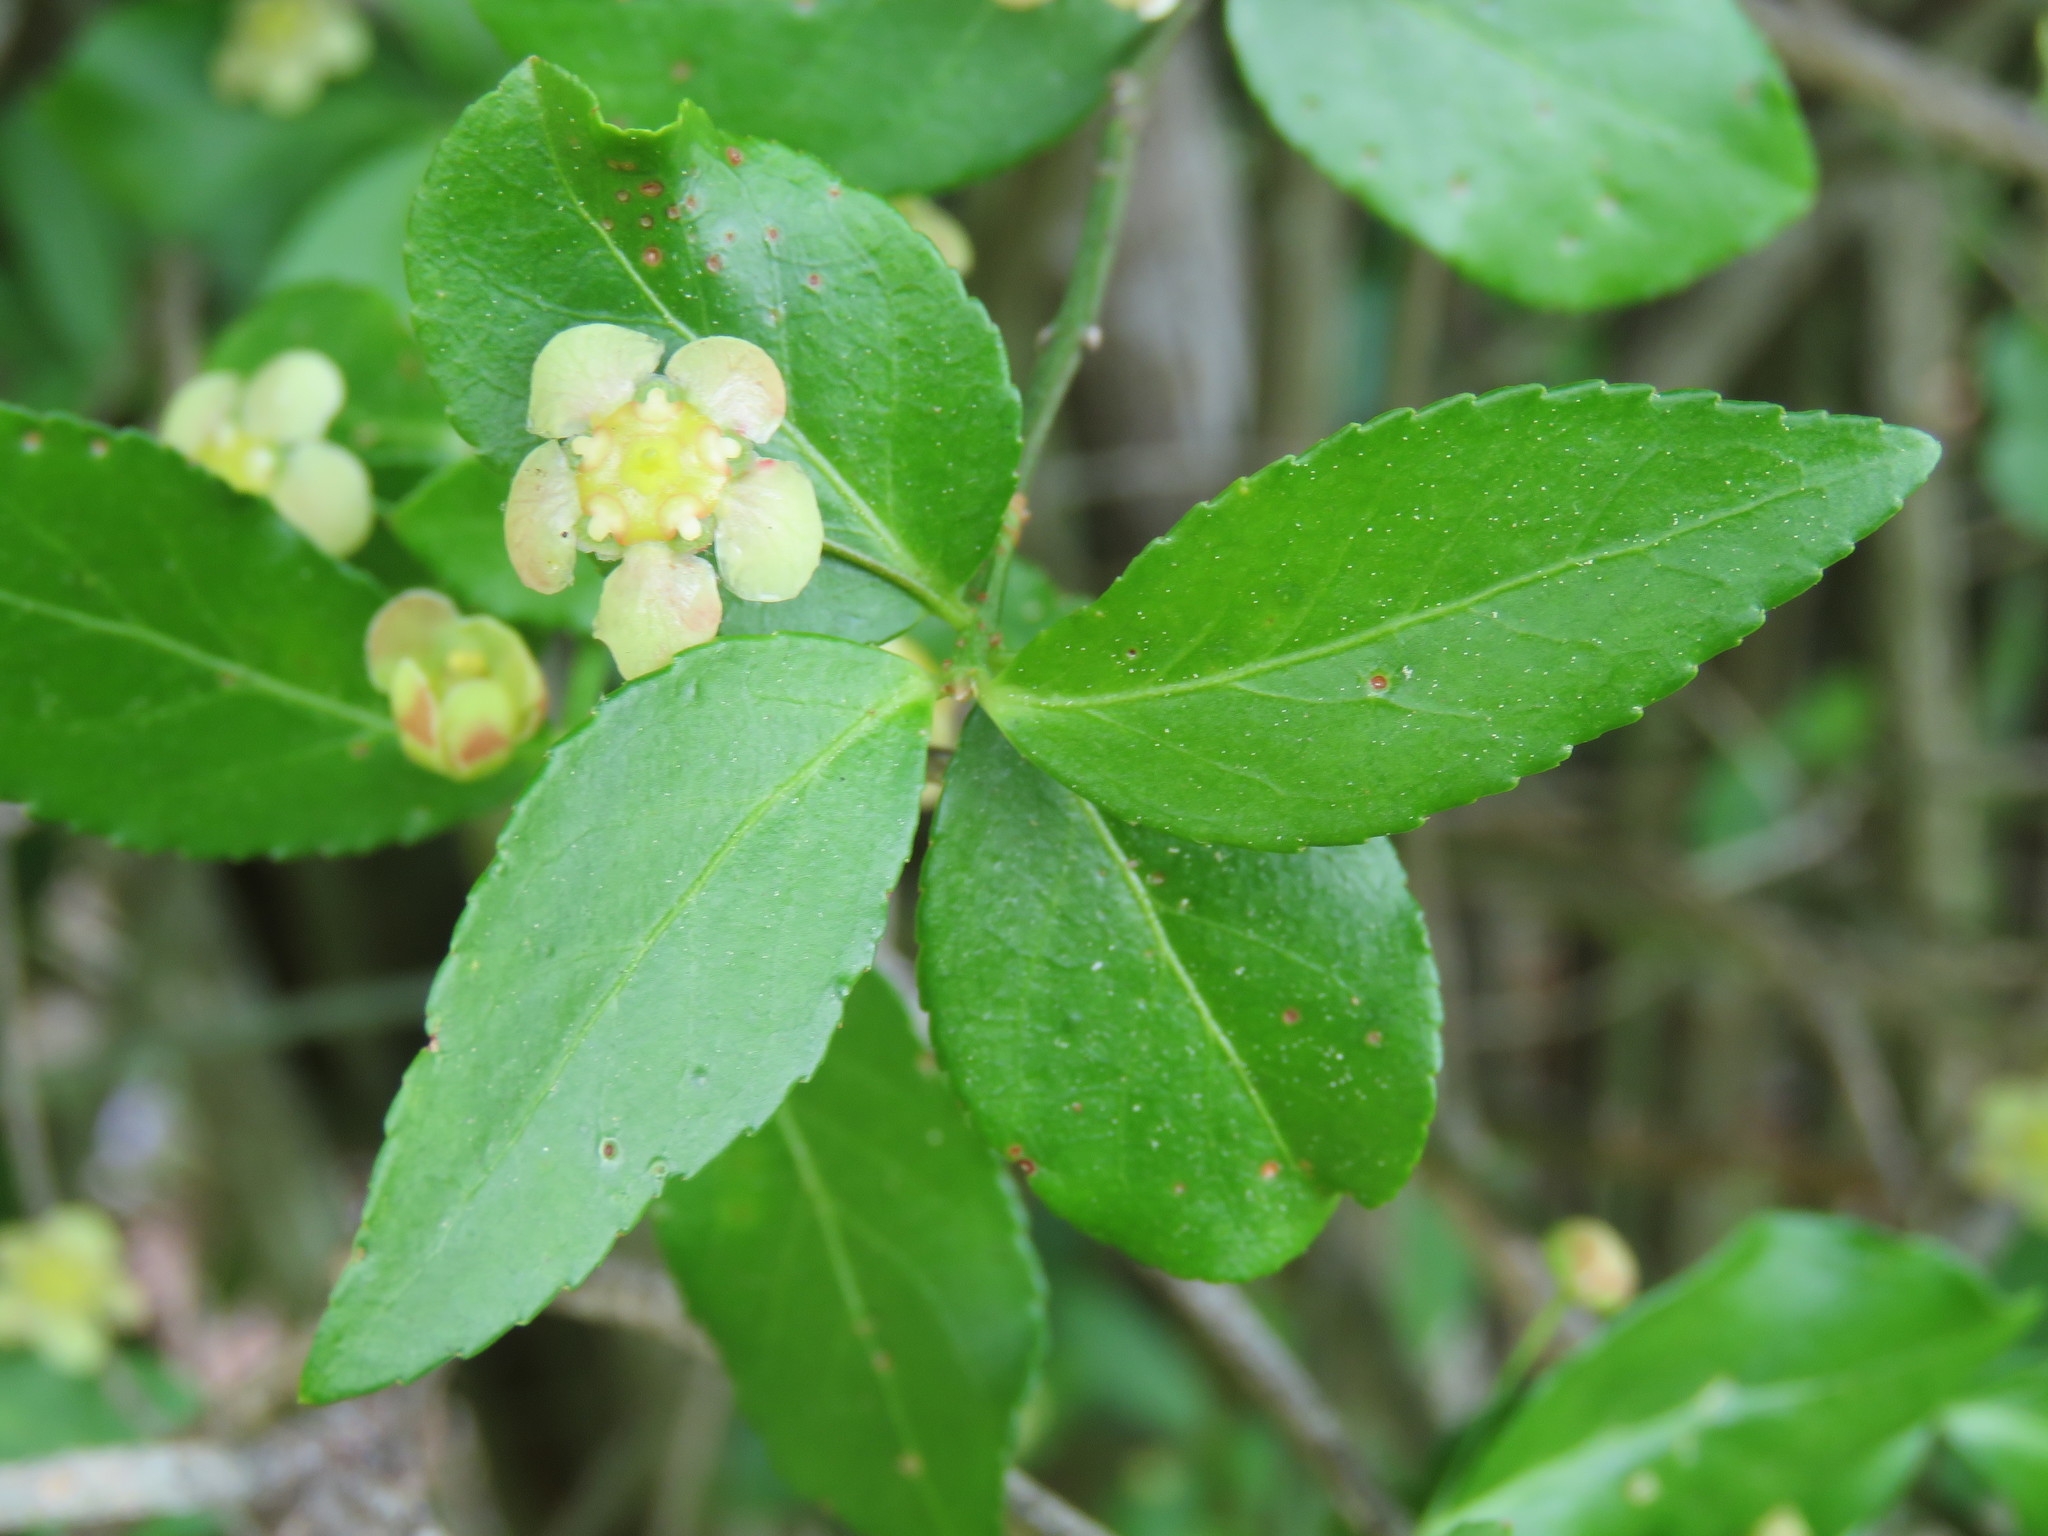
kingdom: Plantae
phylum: Tracheophyta
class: Magnoliopsida
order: Celastrales
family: Celastraceae
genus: Euonymus
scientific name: Euonymus americanus
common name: Bursting-heart
